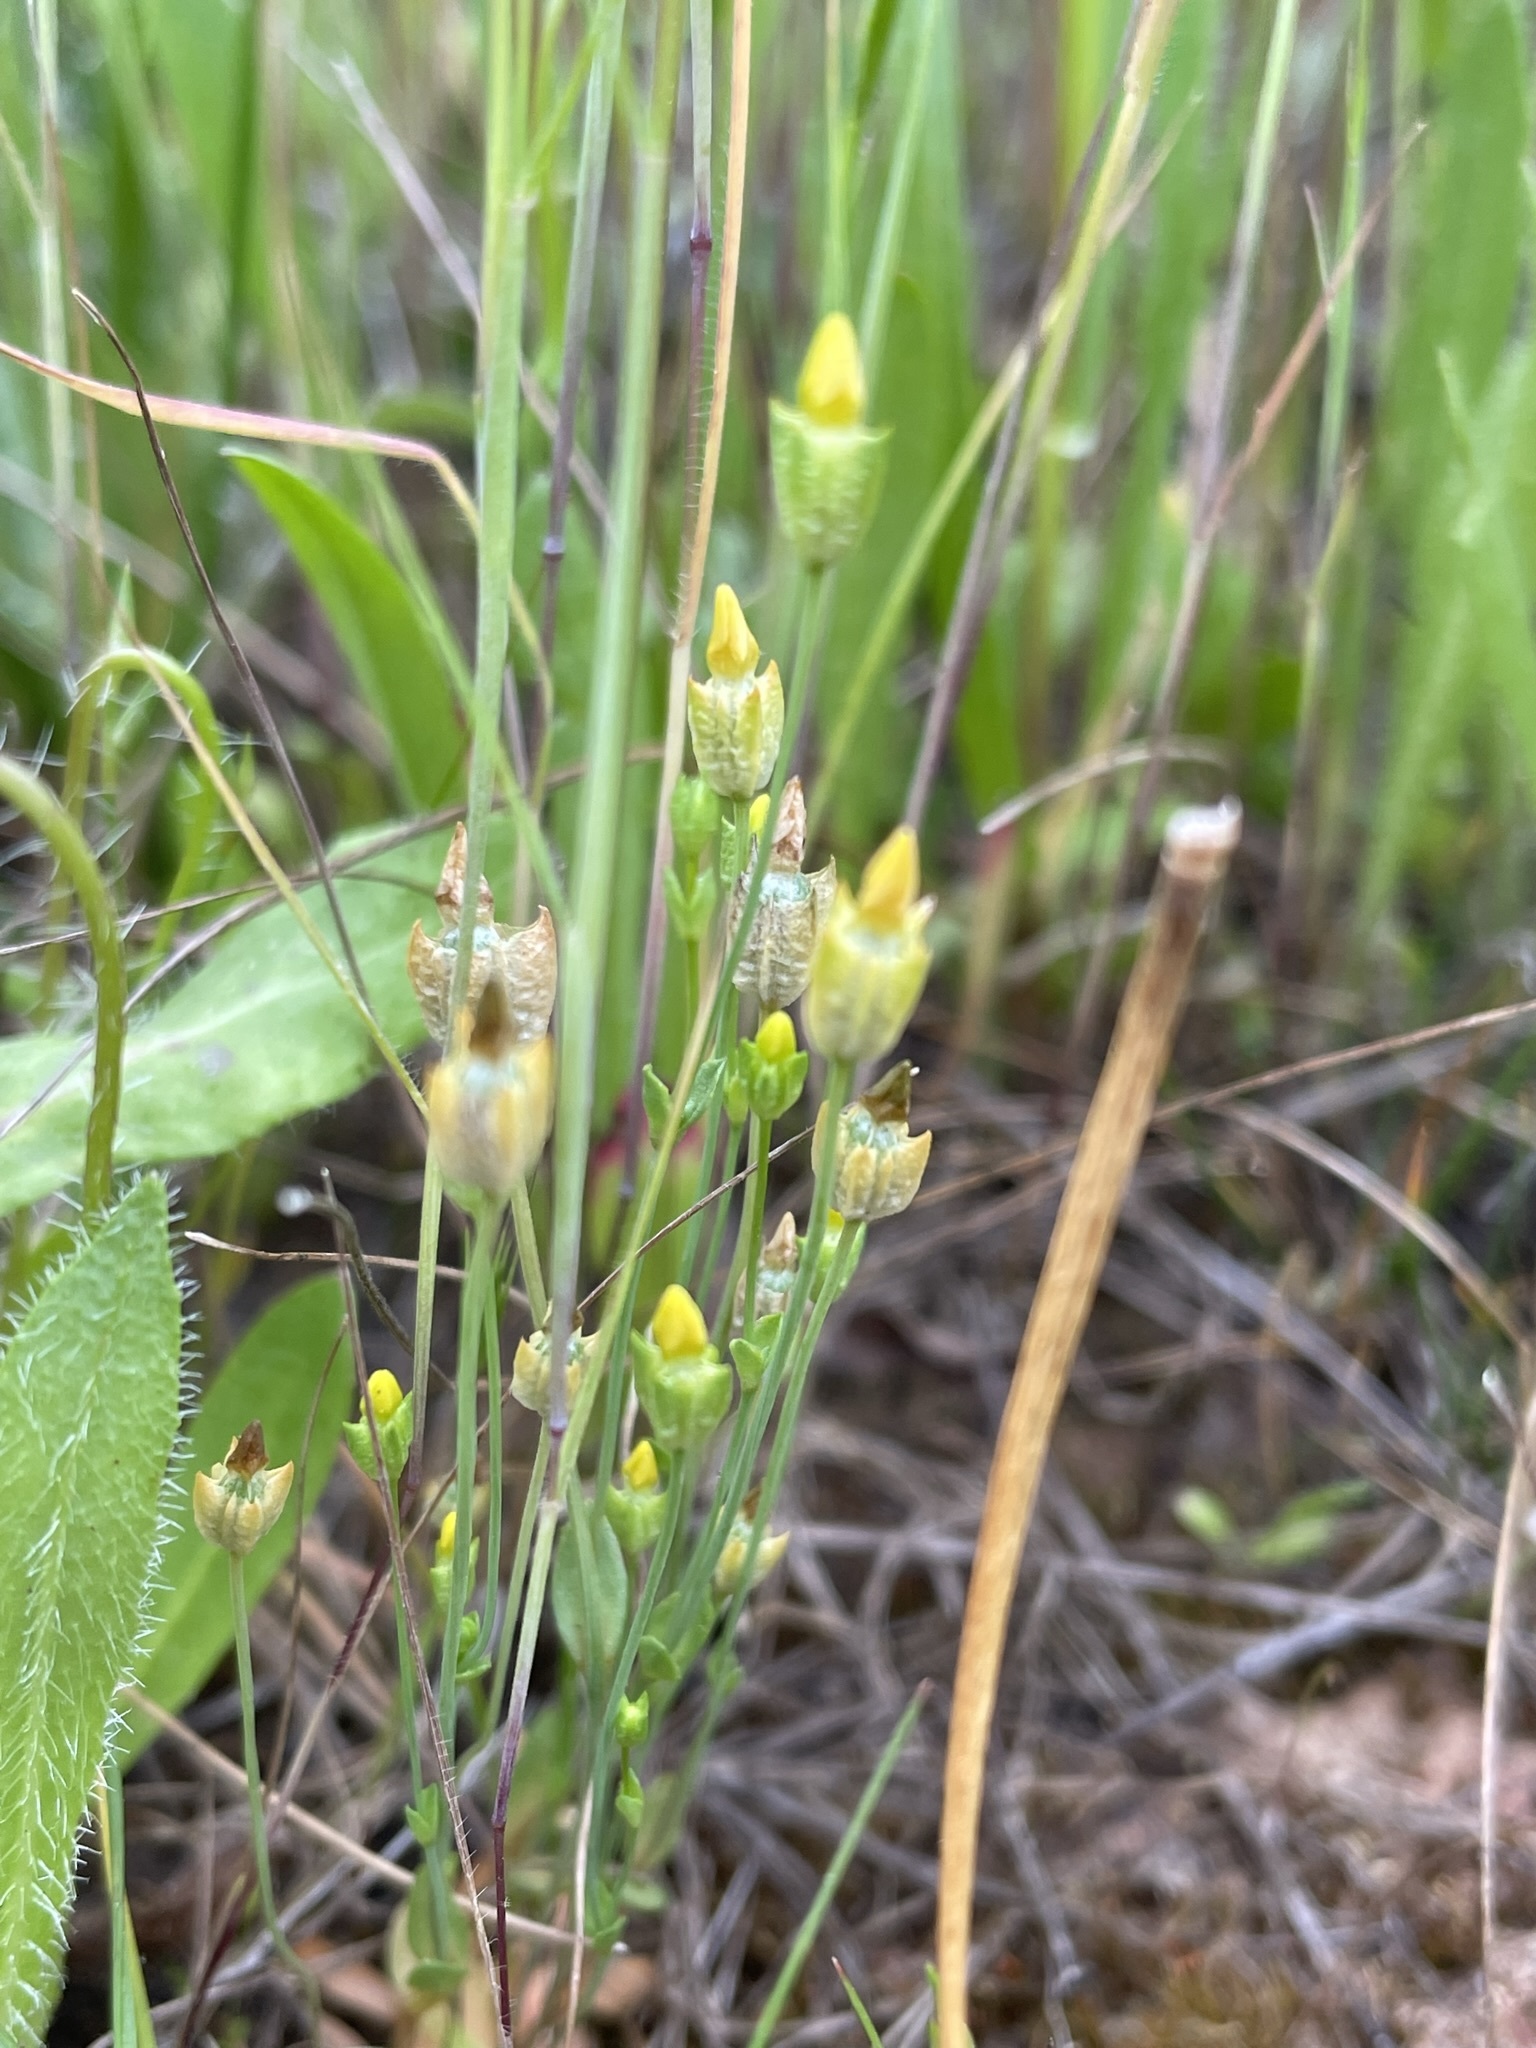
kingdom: Plantae
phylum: Tracheophyta
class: Magnoliopsida
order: Gentianales
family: Gentianaceae
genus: Microcala
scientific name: Microcala quadrangularis
